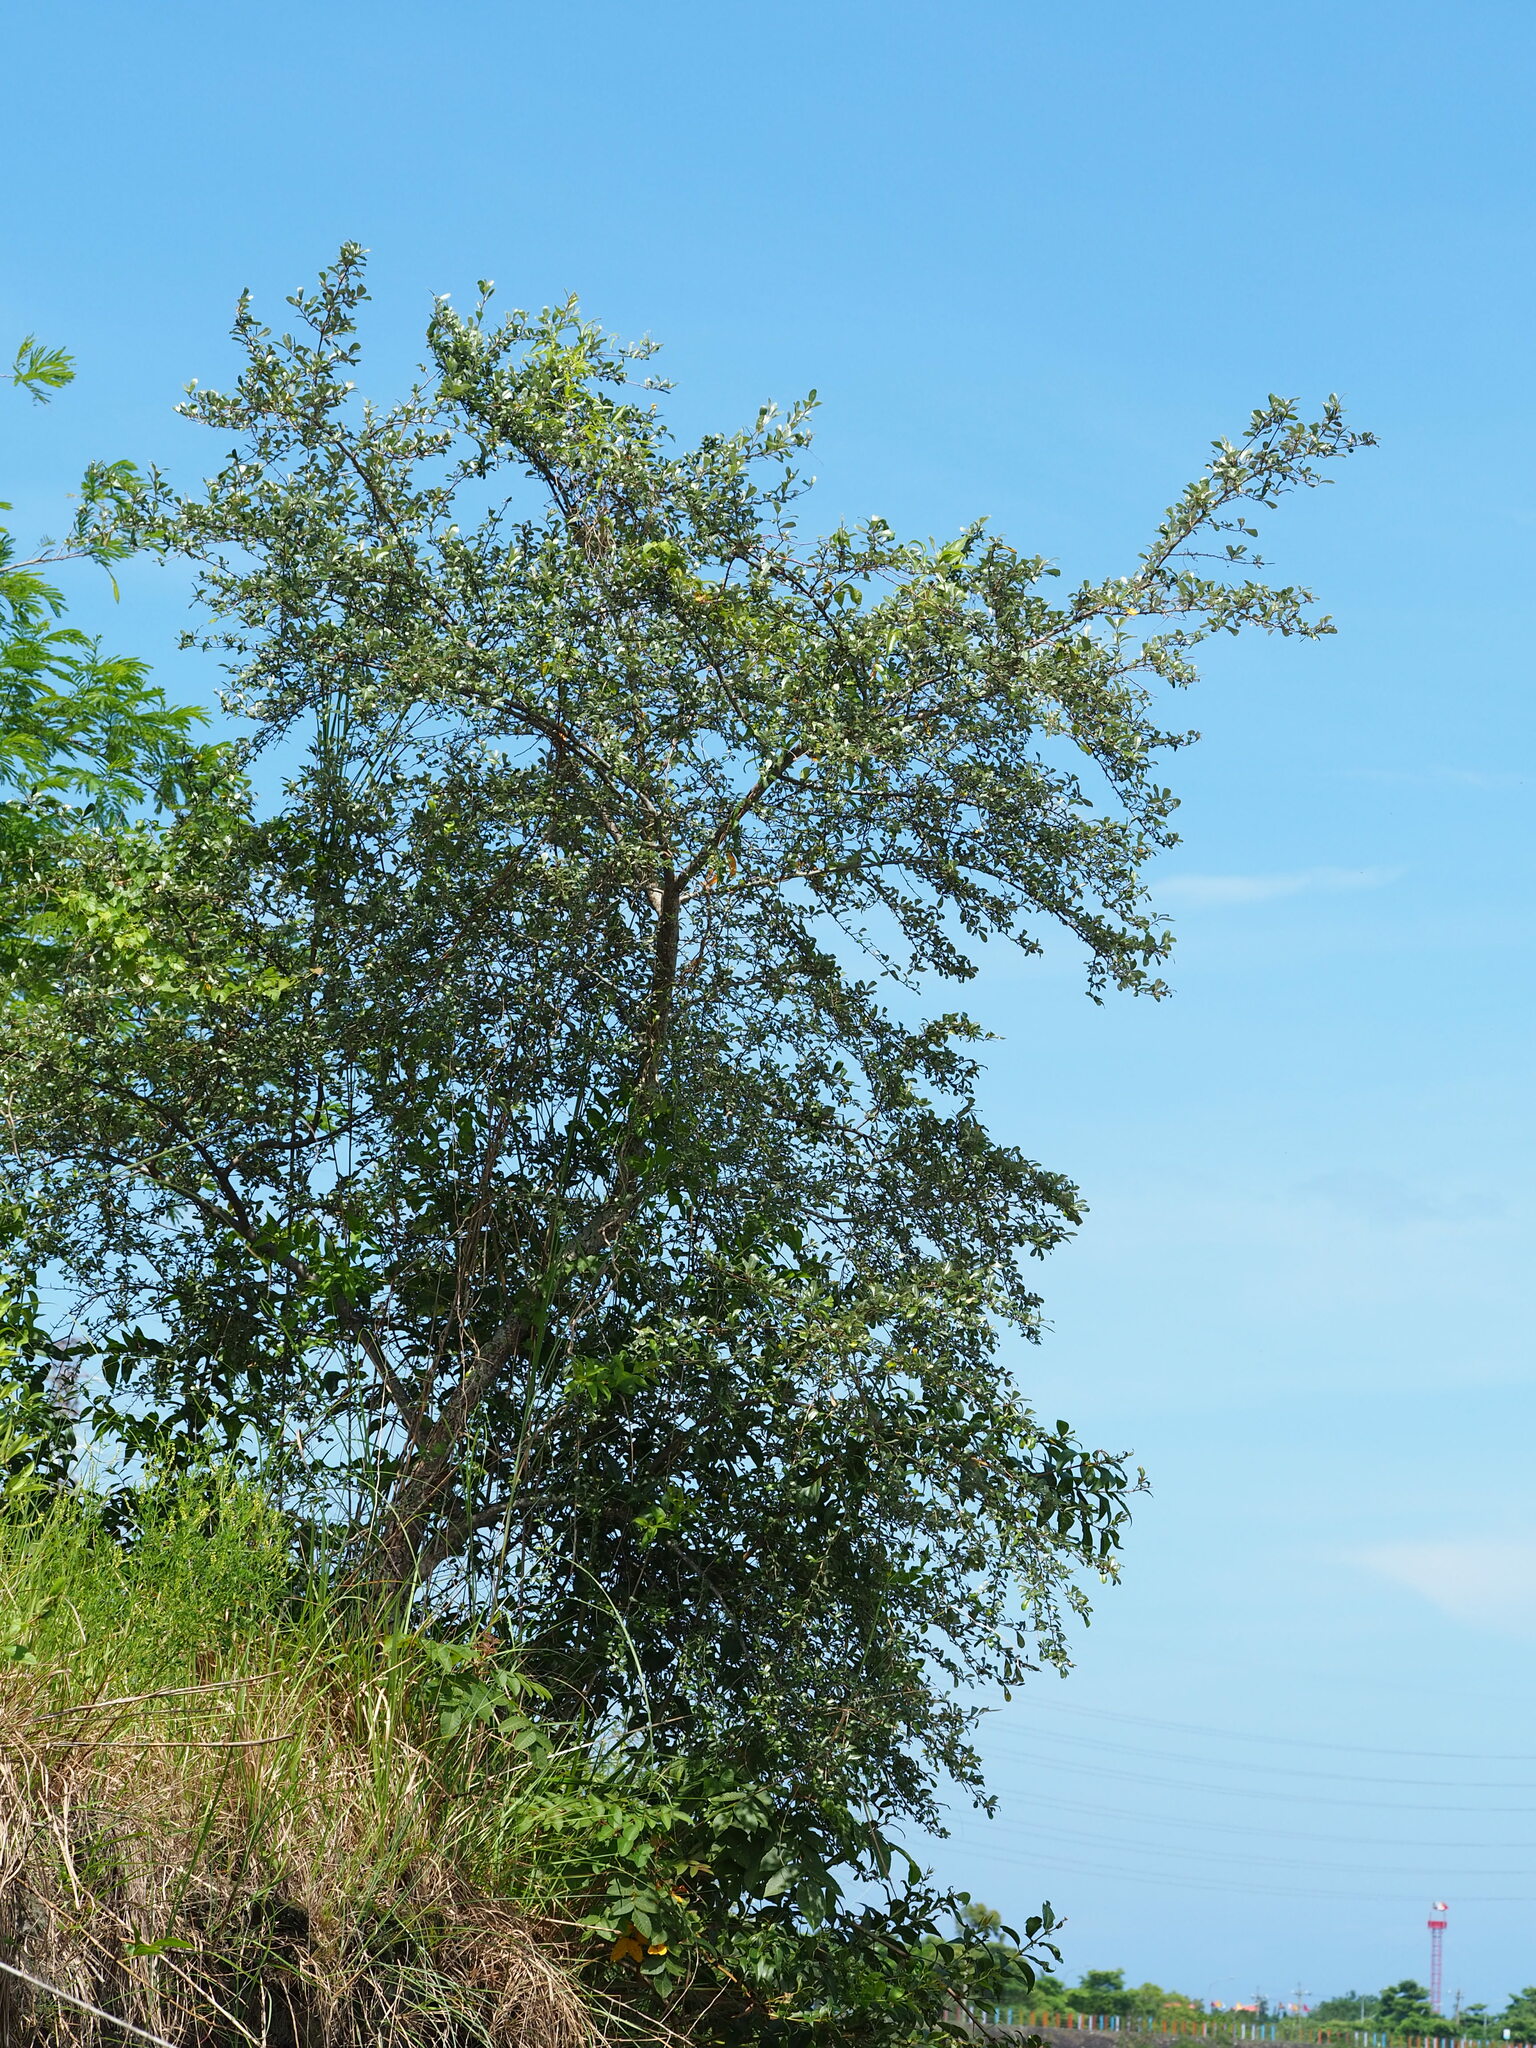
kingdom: Plantae
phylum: Tracheophyta
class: Magnoliopsida
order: Rosales
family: Elaeagnaceae
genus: Elaeagnus
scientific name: Elaeagnus oldhamii
